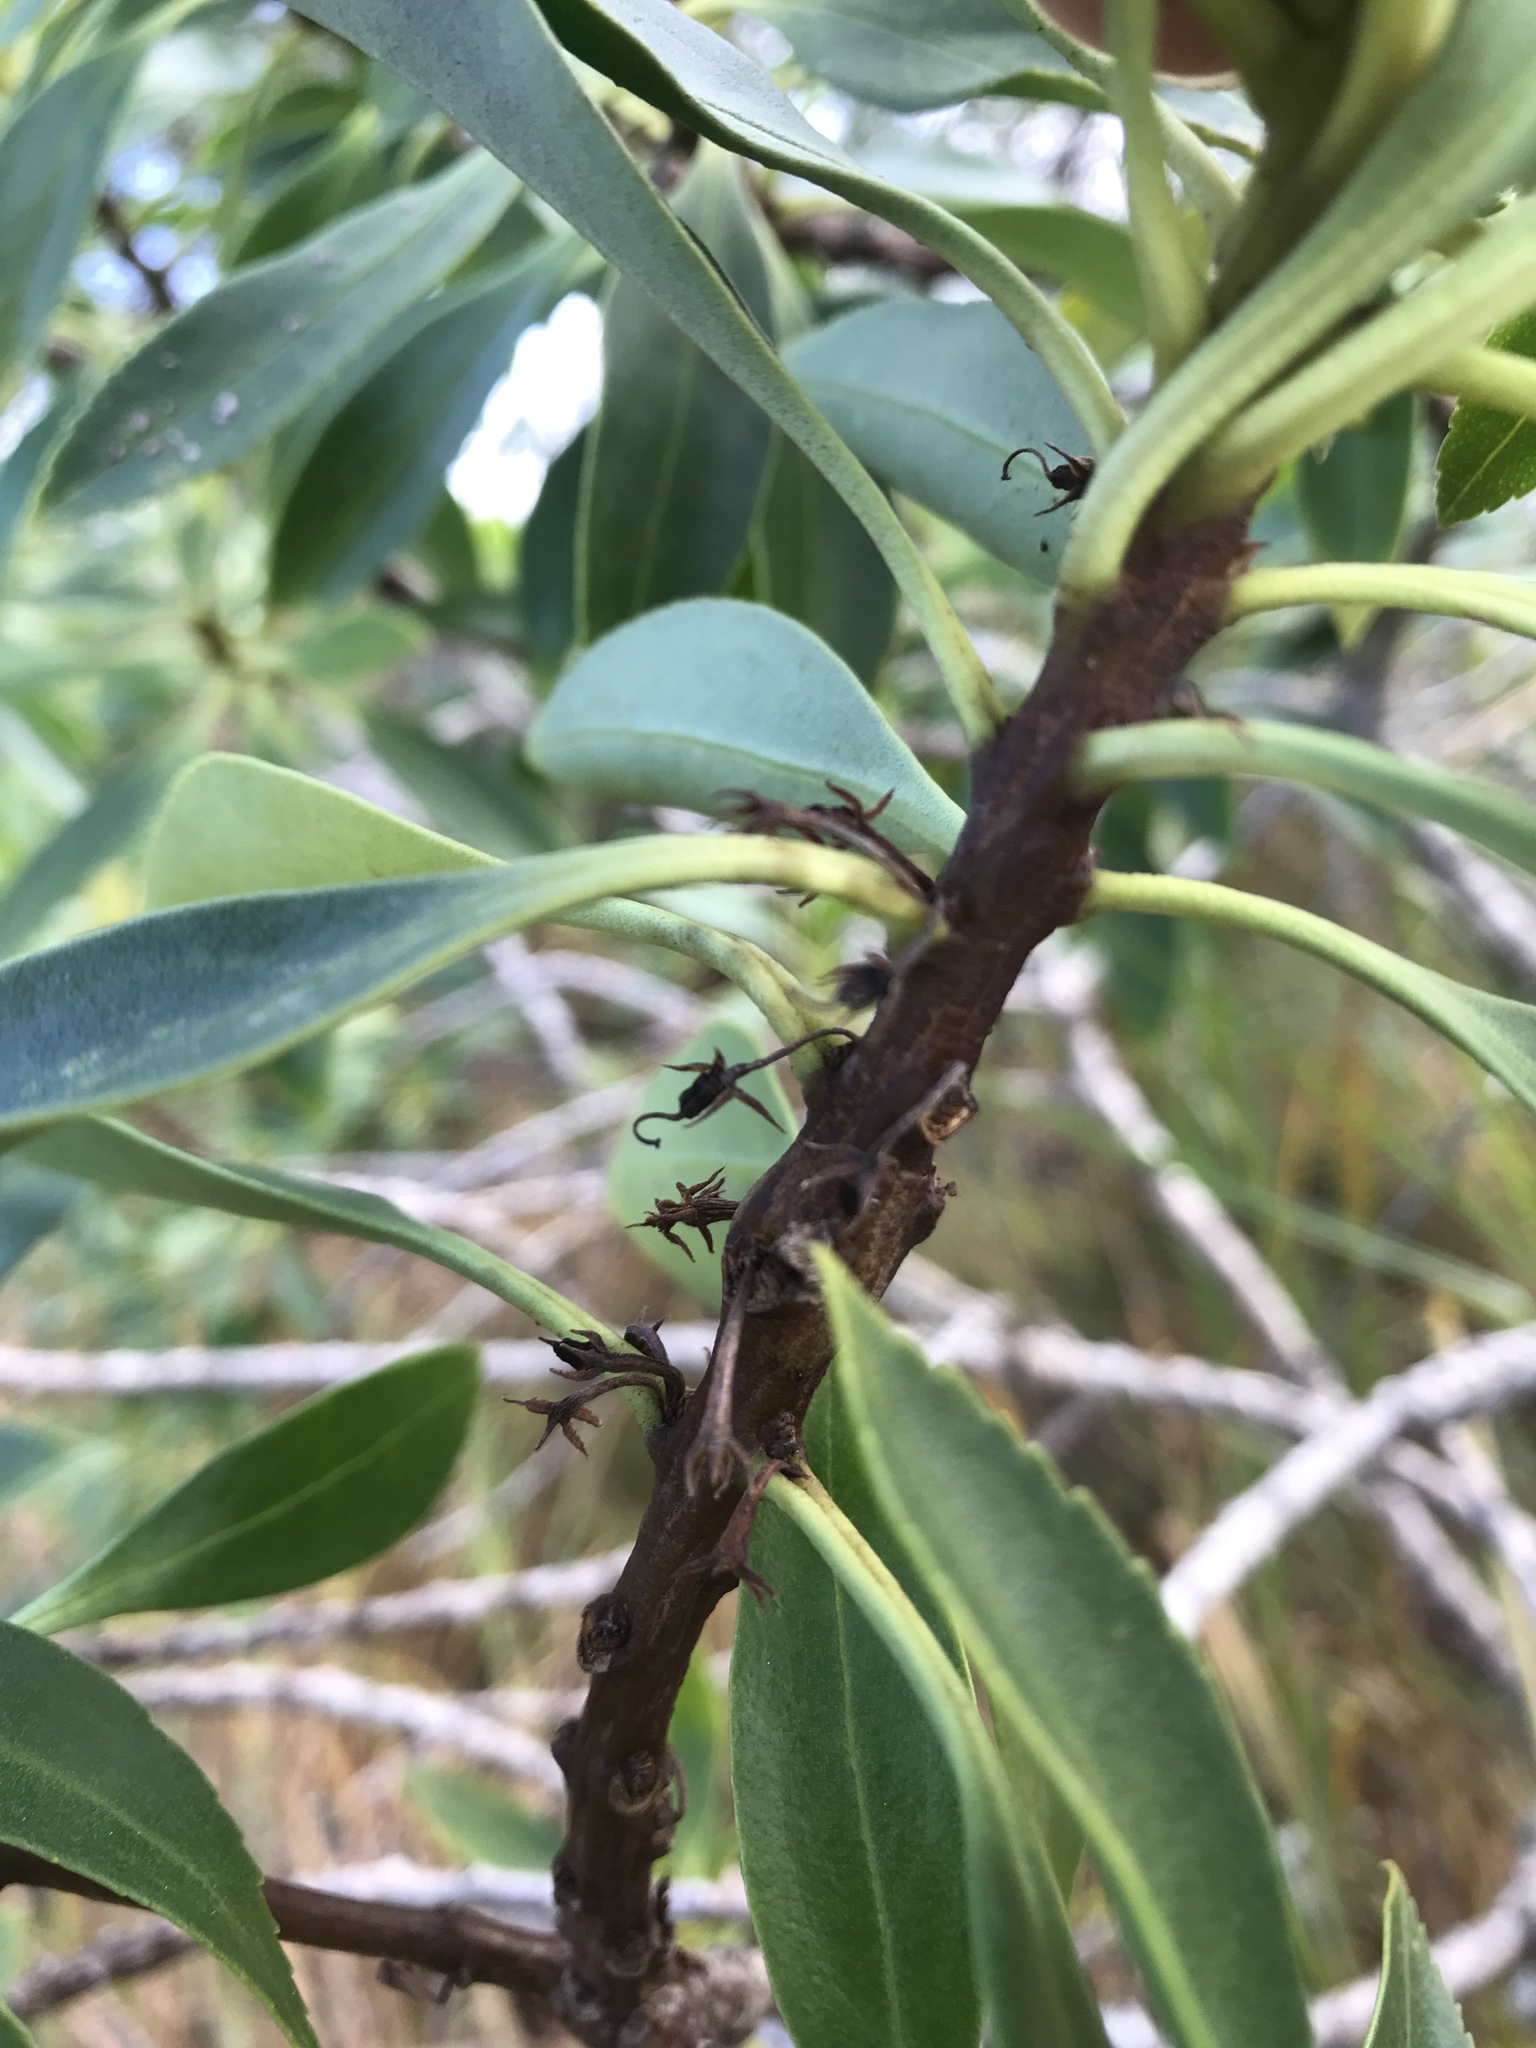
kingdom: Plantae
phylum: Tracheophyta
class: Magnoliopsida
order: Lamiales
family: Scrophulariaceae
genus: Myoporum
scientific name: Myoporum insulare
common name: Common boobialla
